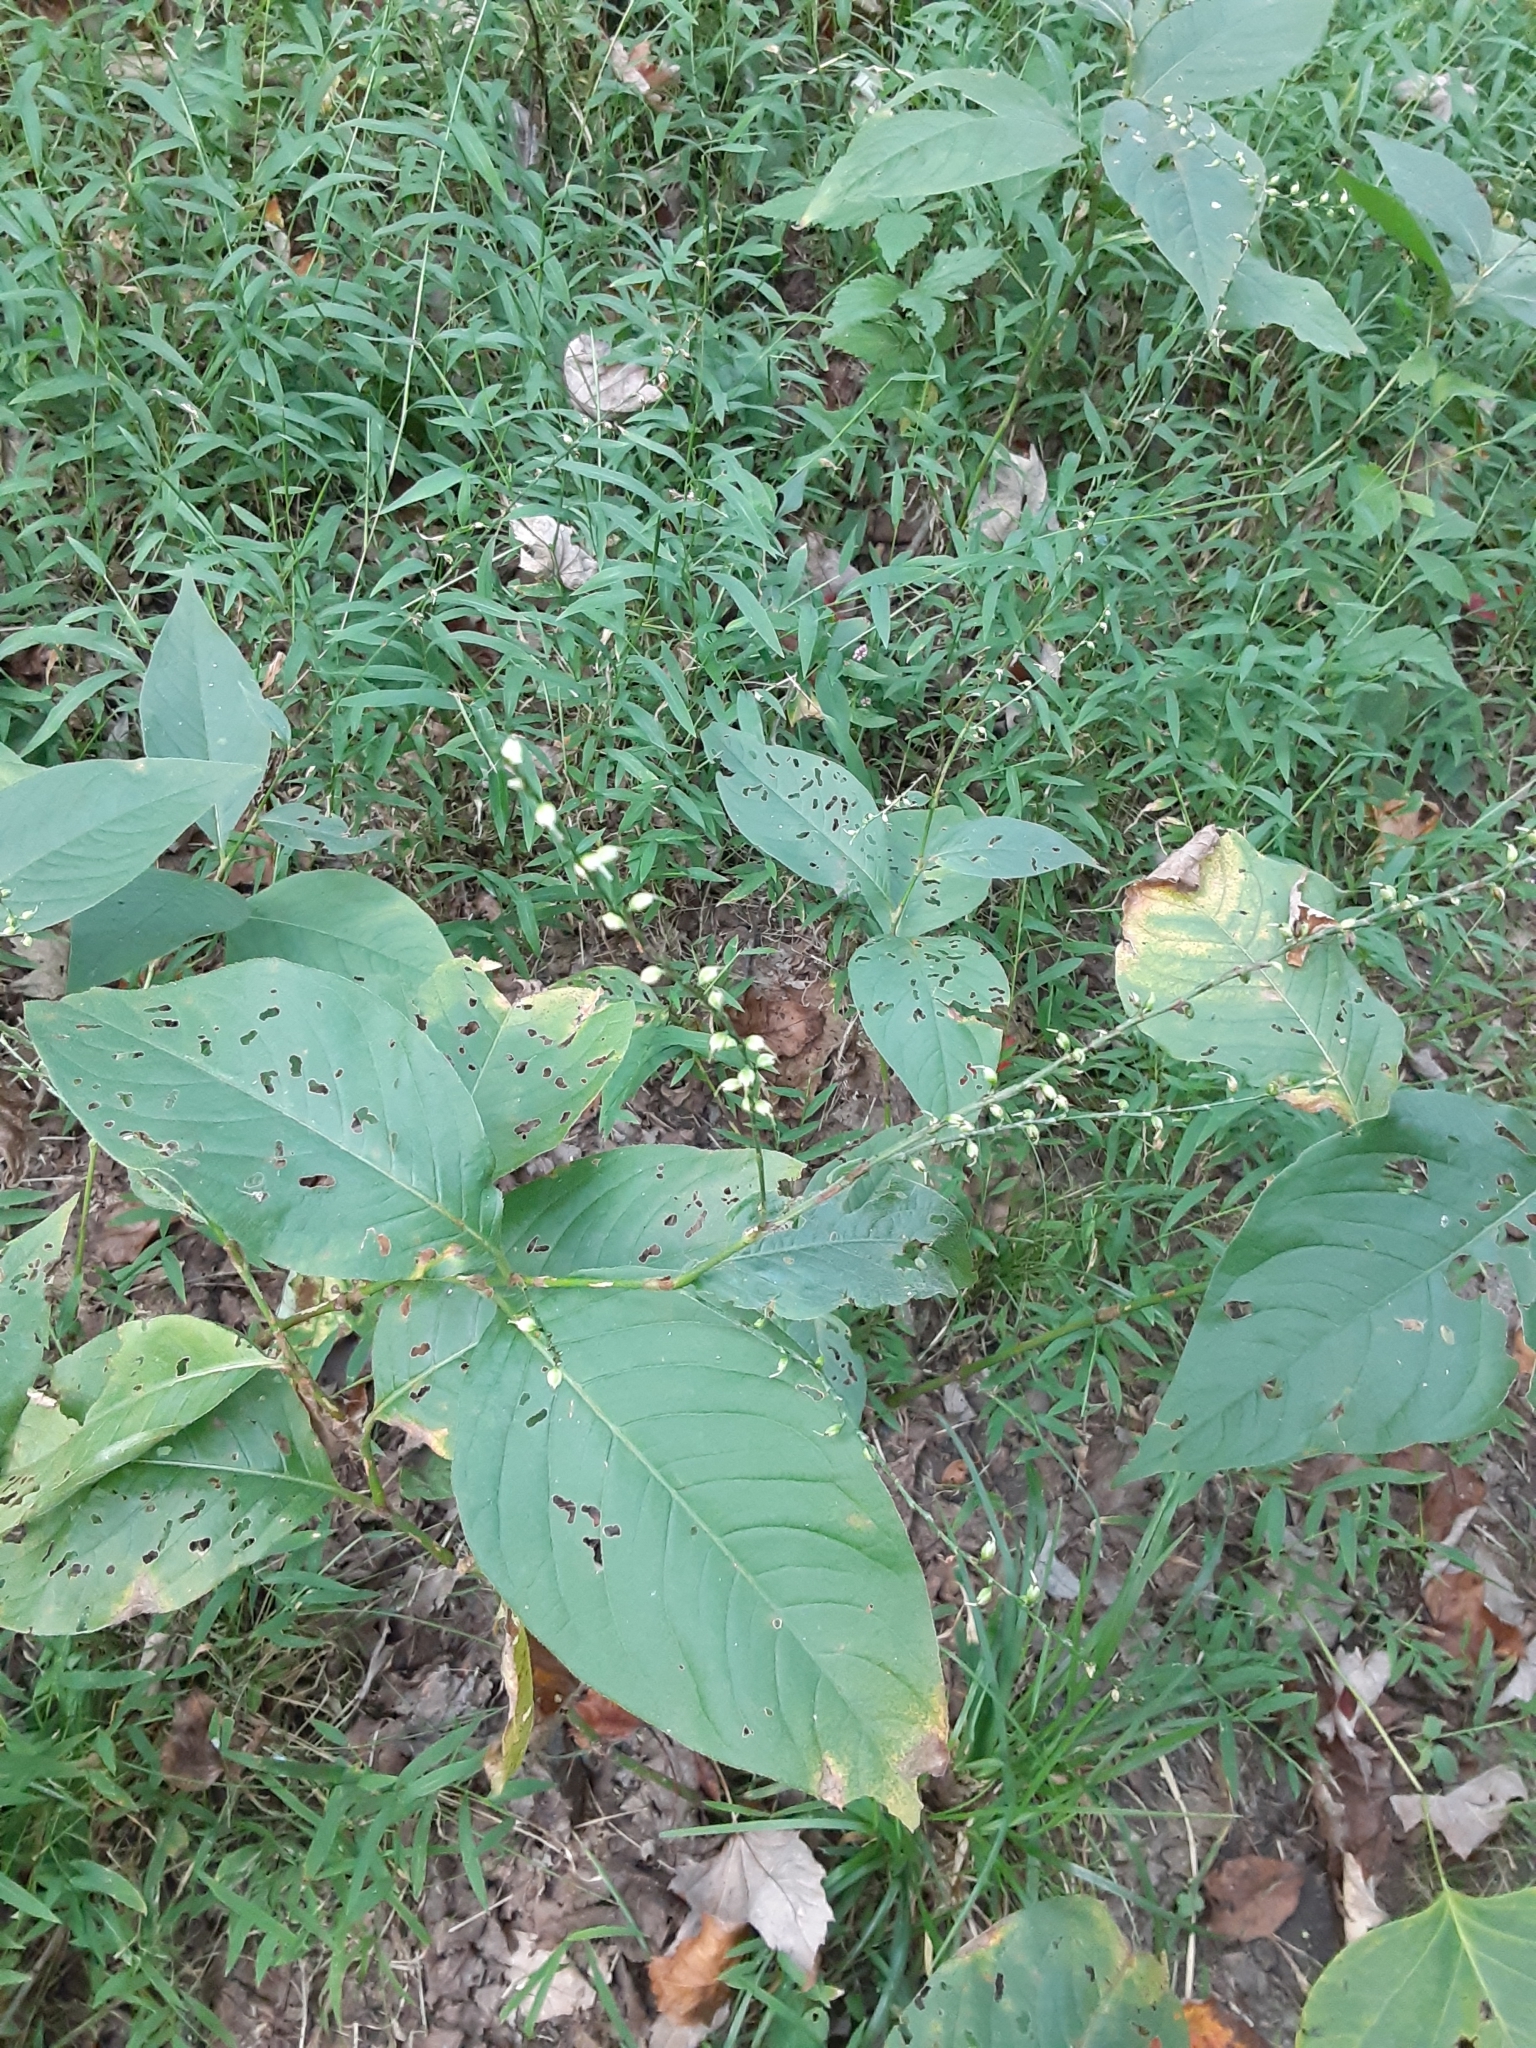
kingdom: Plantae
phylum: Tracheophyta
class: Magnoliopsida
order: Caryophyllales
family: Polygonaceae
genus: Persicaria
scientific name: Persicaria virginiana
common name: Jumpseed
